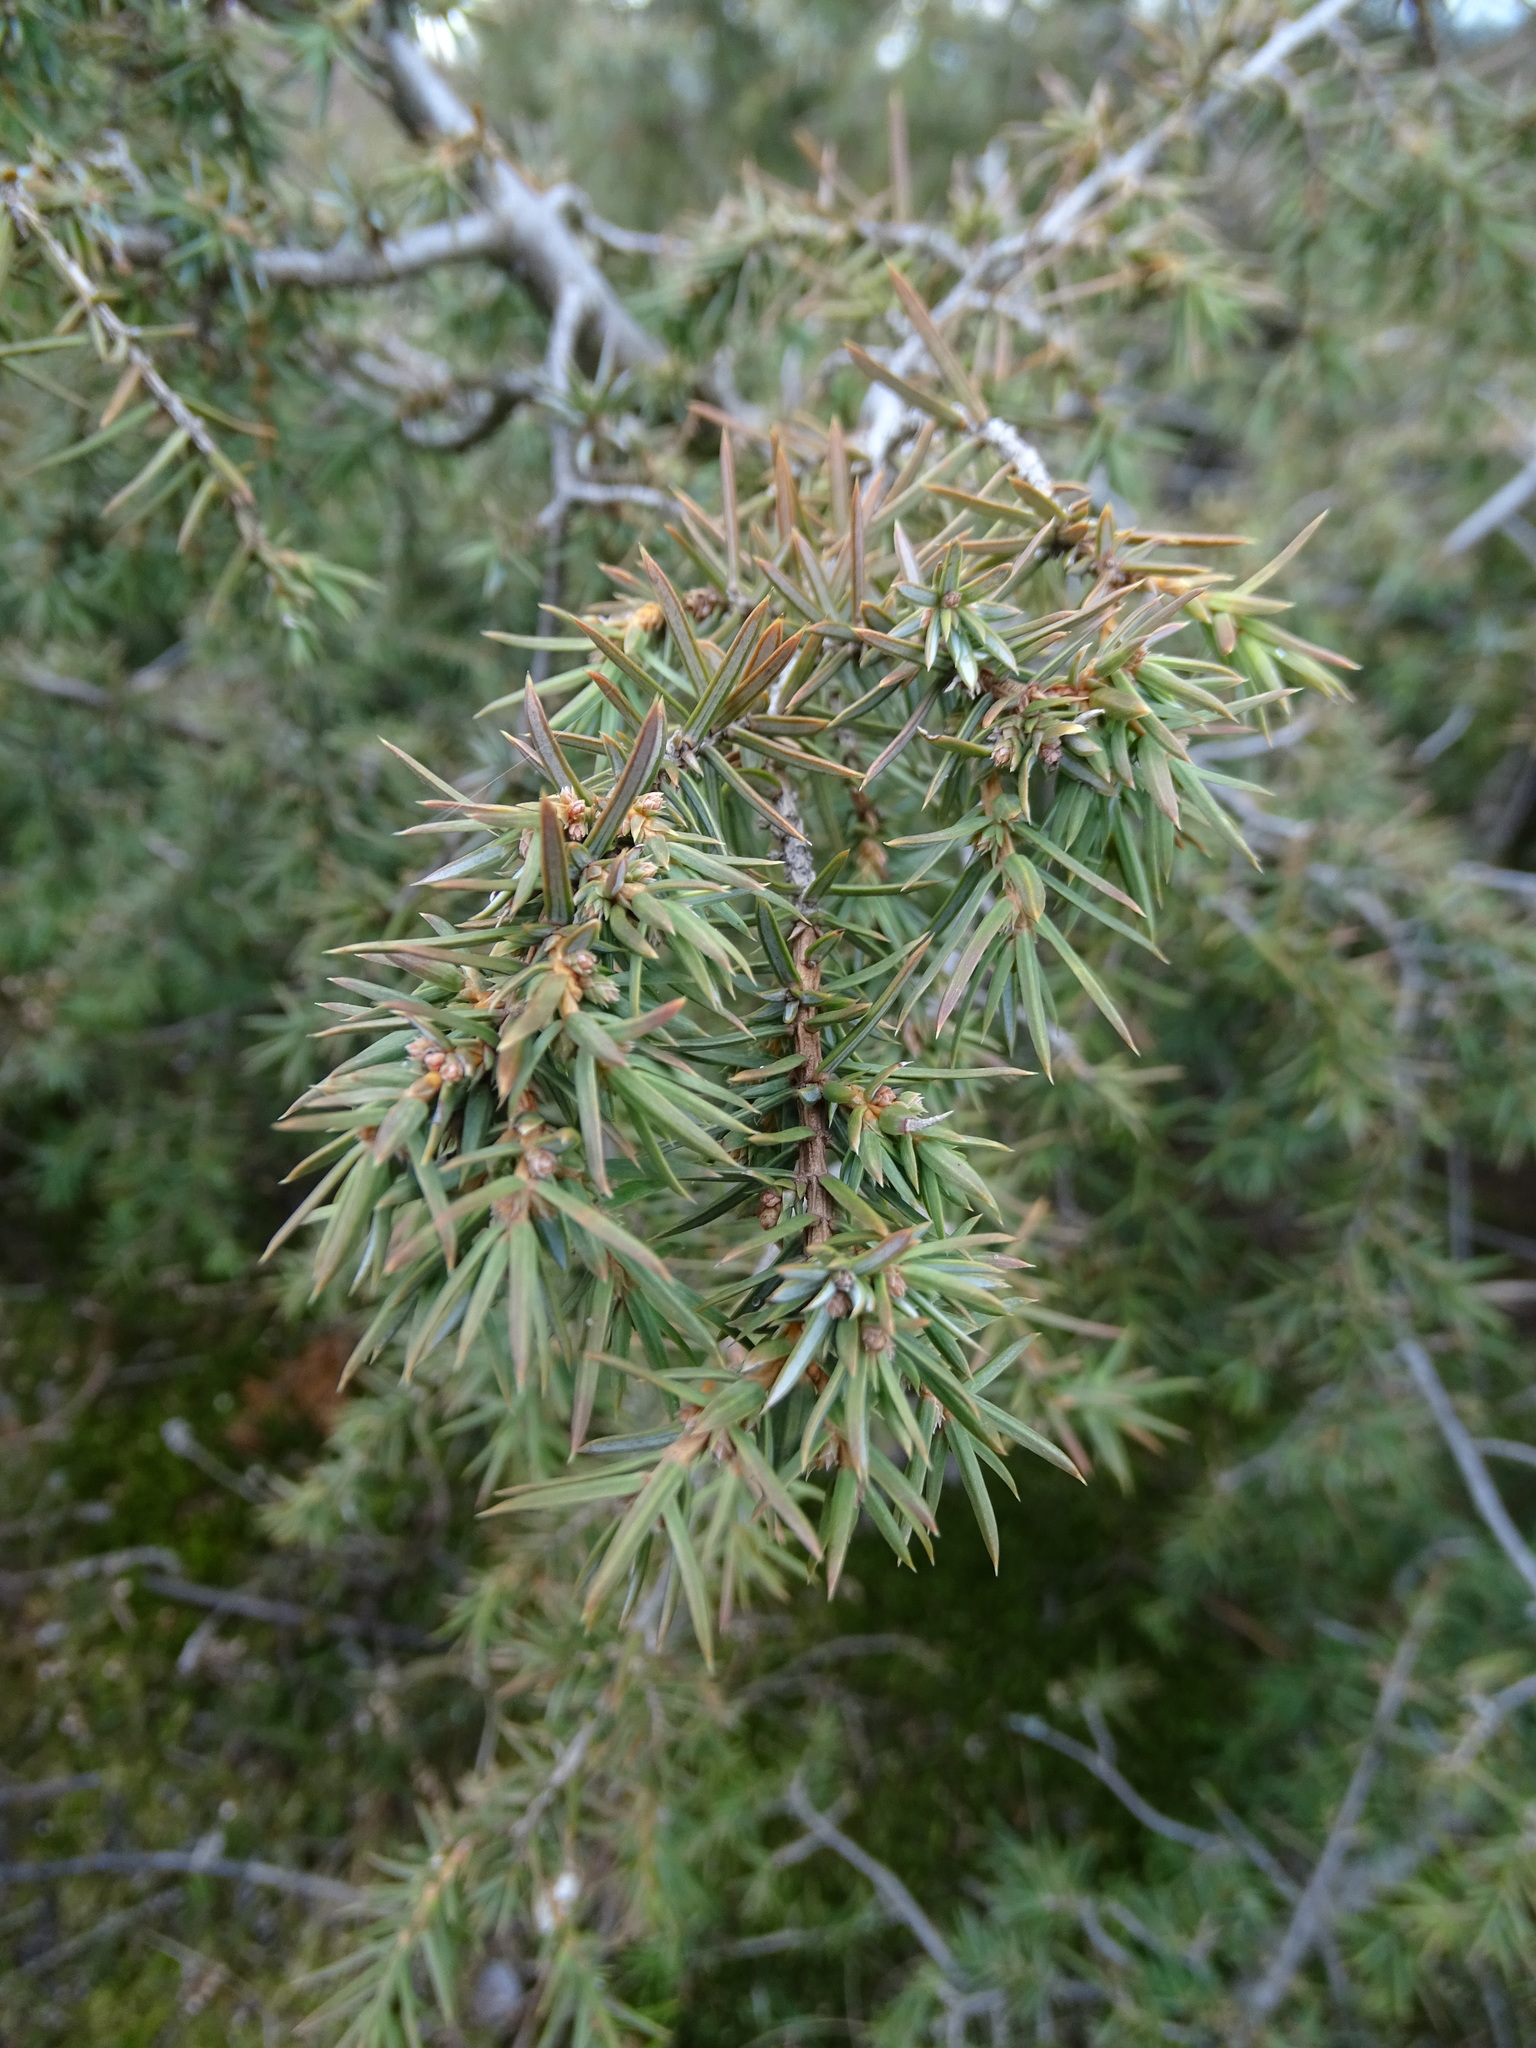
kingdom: Plantae
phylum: Tracheophyta
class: Pinopsida
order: Pinales
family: Cupressaceae
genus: Juniperus
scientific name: Juniperus communis
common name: Common juniper
